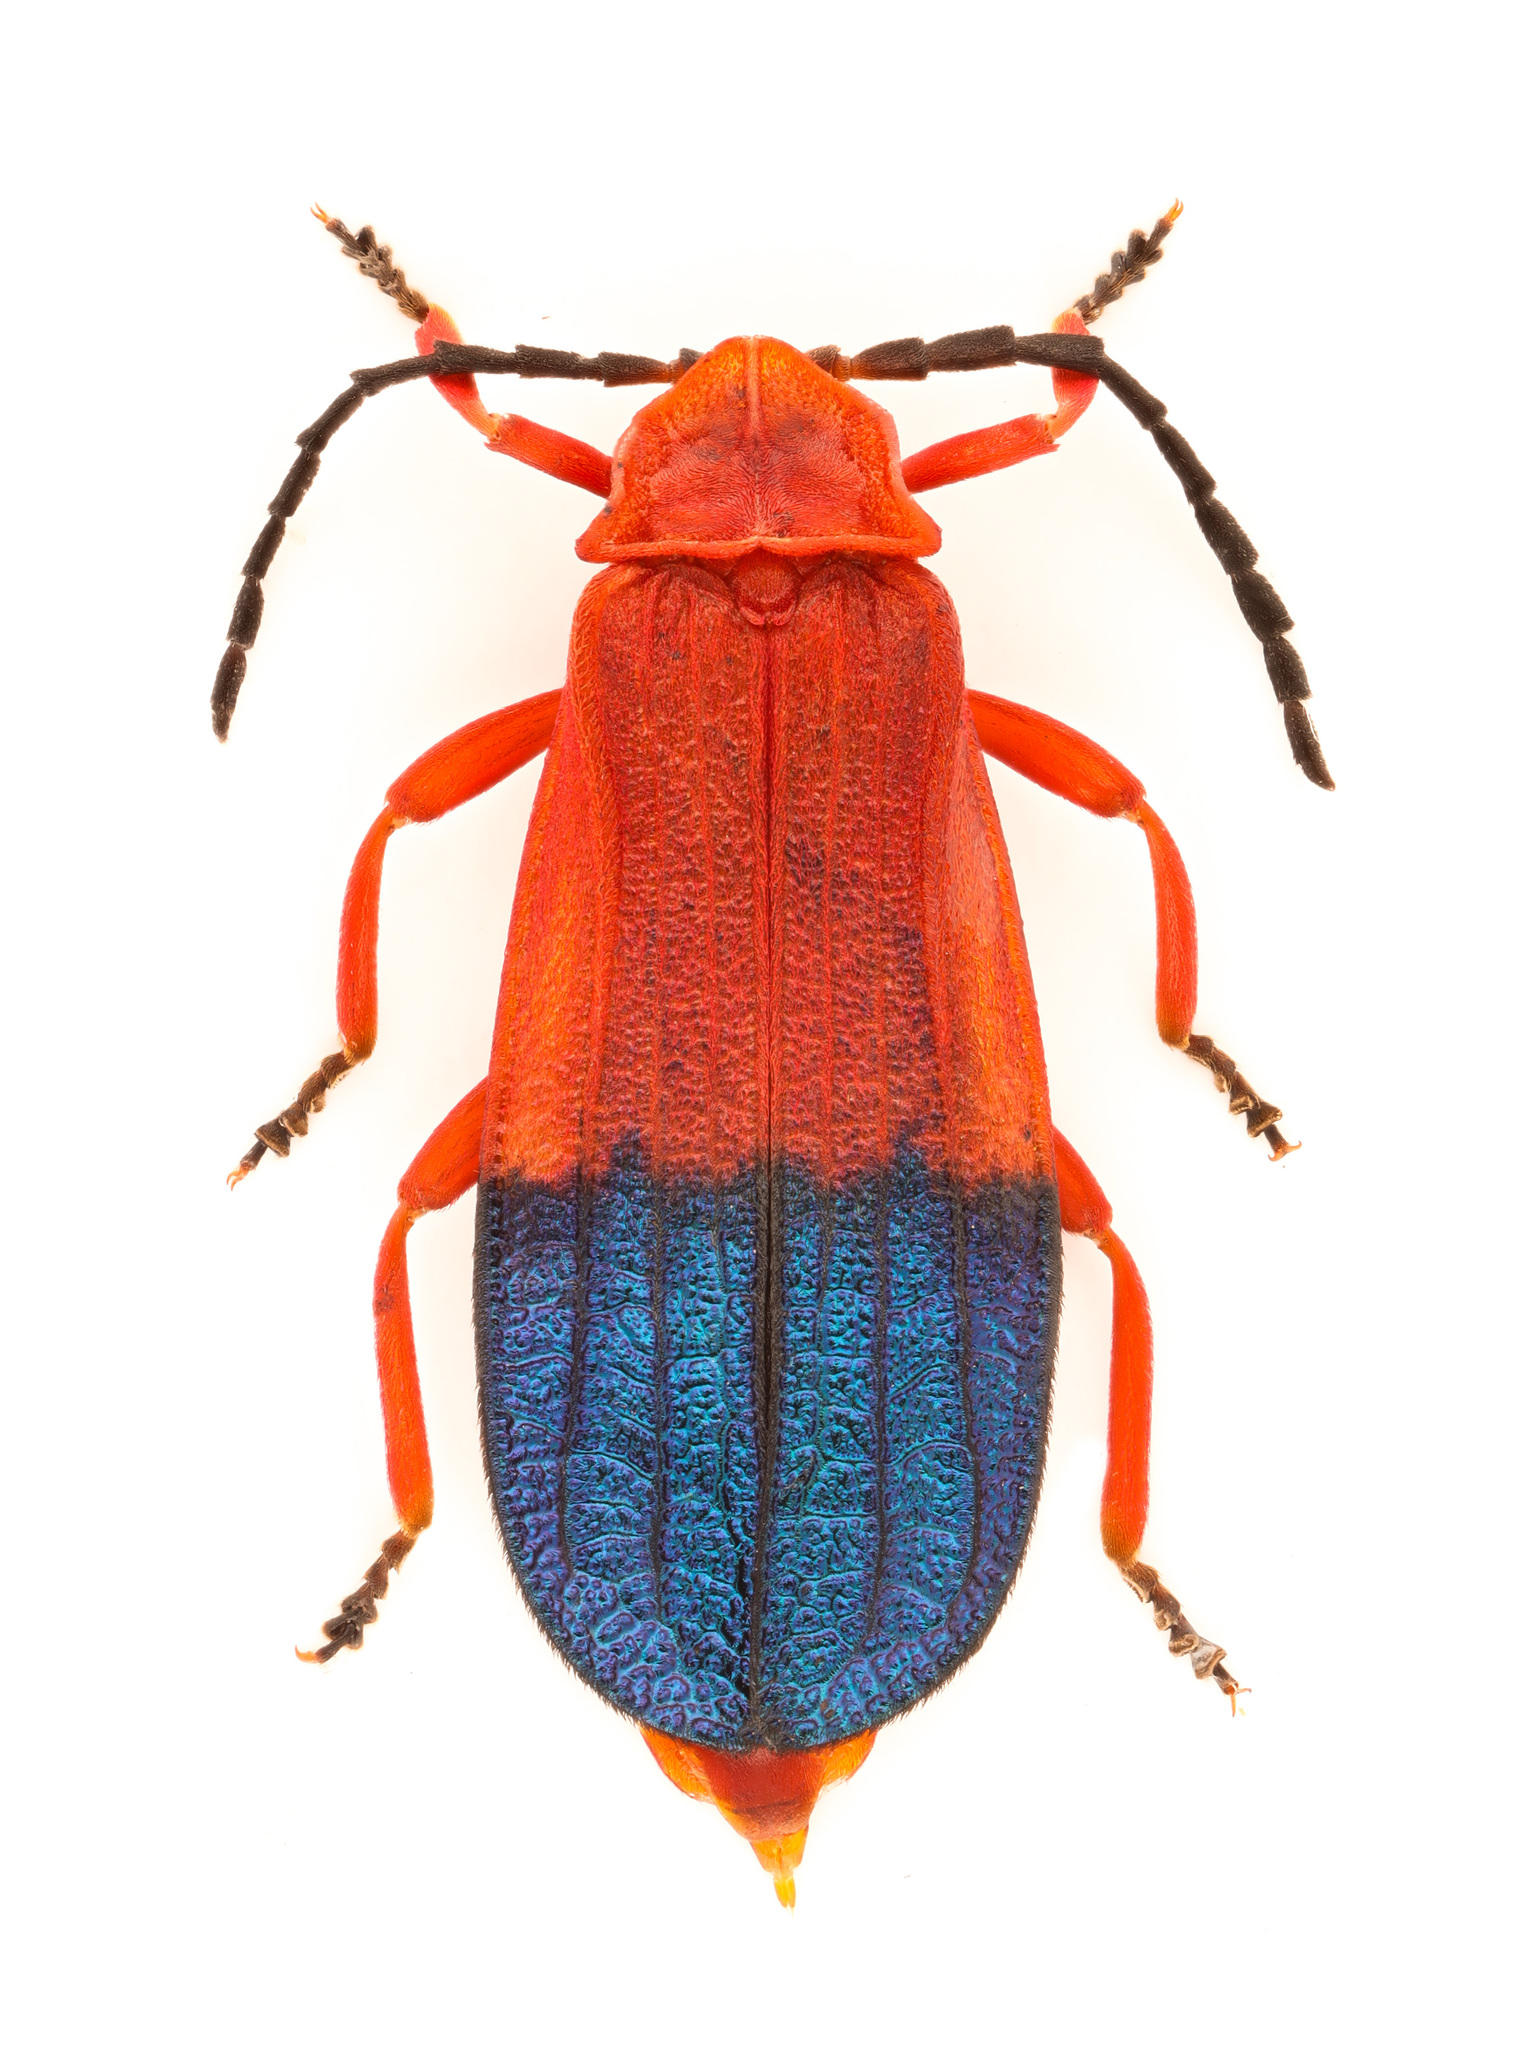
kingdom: Animalia
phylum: Arthropoda
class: Insecta
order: Coleoptera
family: Lycidae
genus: Thonalmus
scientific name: Thonalmus dominicensis
